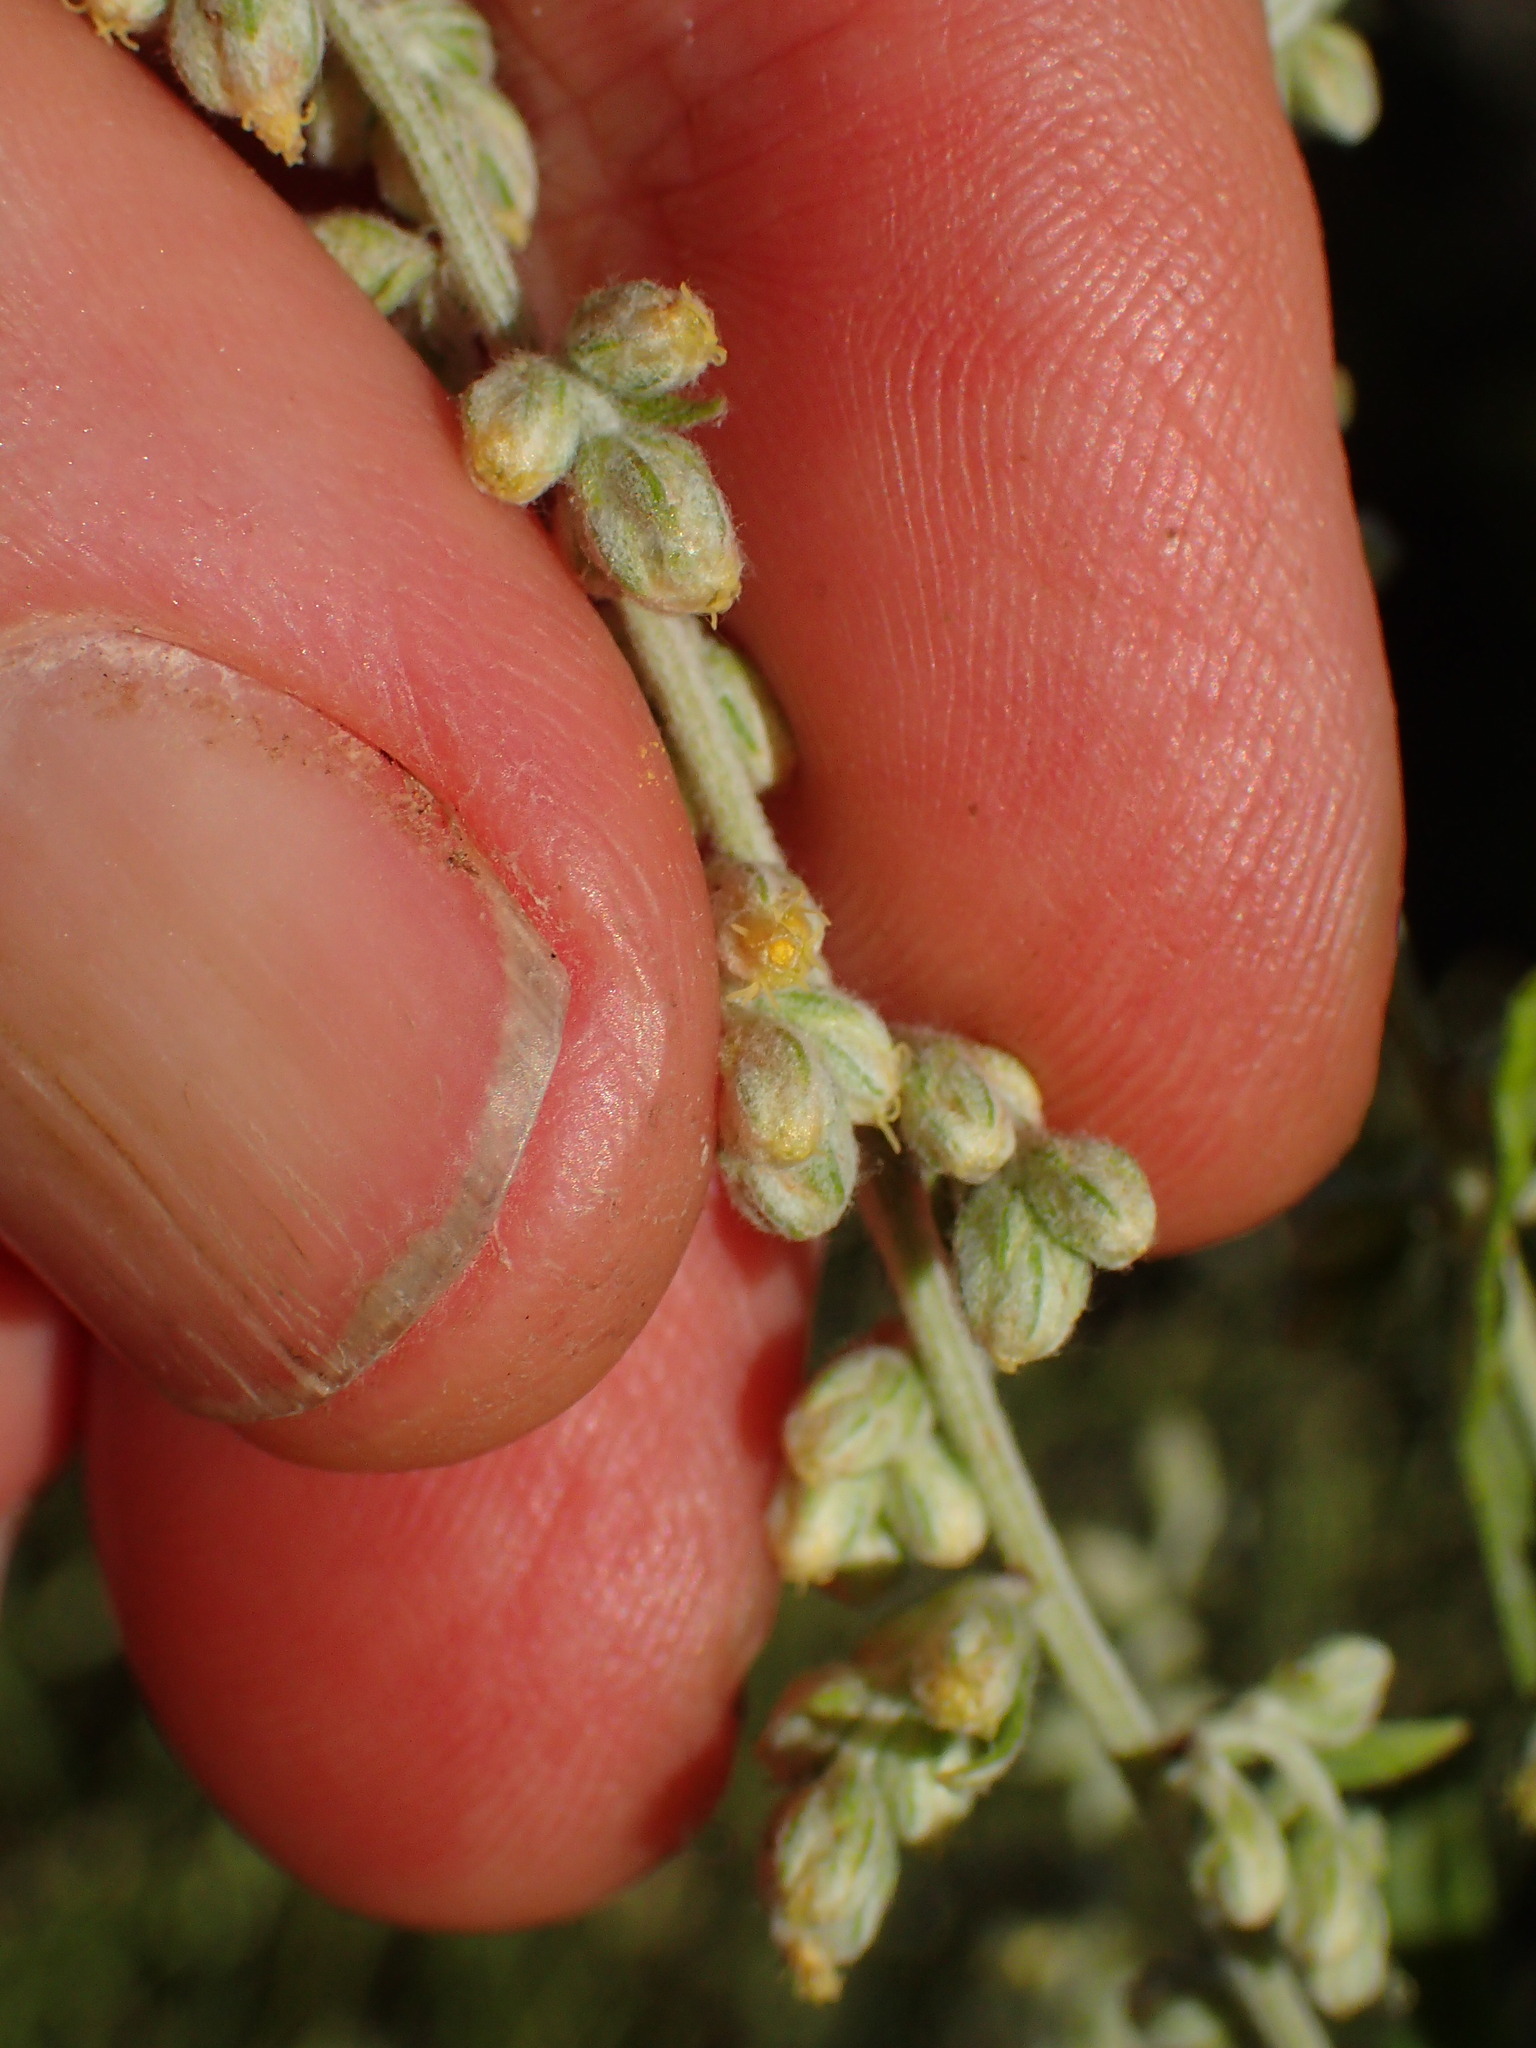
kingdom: Plantae
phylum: Tracheophyta
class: Magnoliopsida
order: Asterales
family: Asteraceae
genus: Artemisia
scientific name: Artemisia douglasiana
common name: Northwest mugwort
